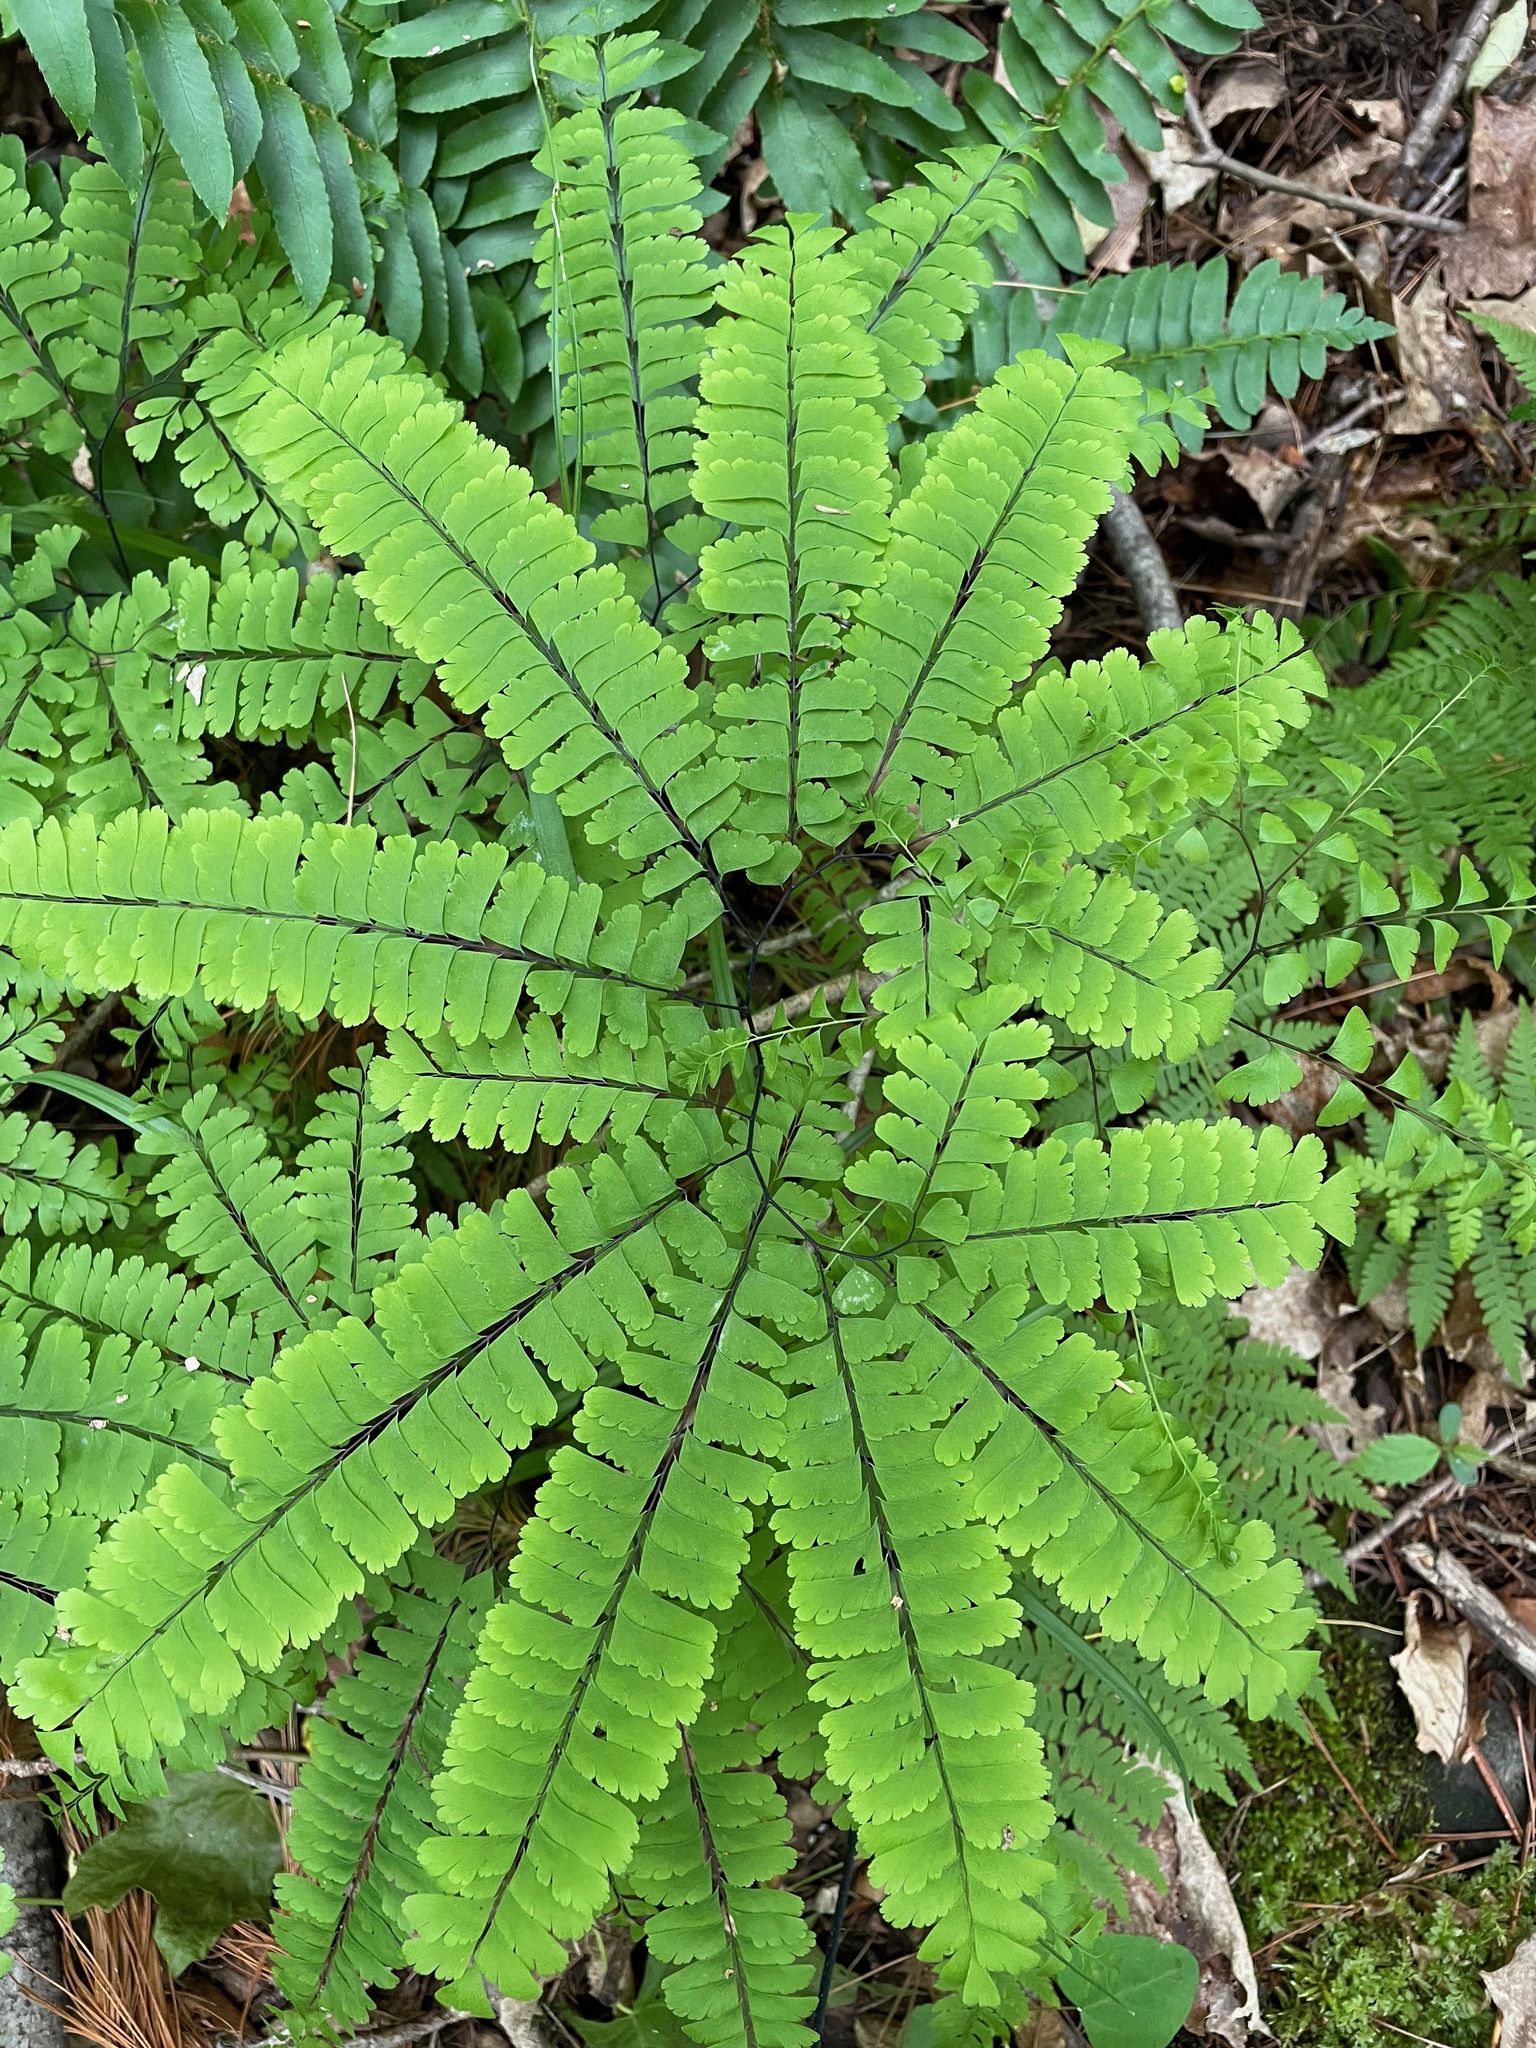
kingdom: Plantae
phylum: Tracheophyta
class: Polypodiopsida
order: Polypodiales
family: Pteridaceae
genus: Adiantum
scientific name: Adiantum pedatum
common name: Five-finger fern
